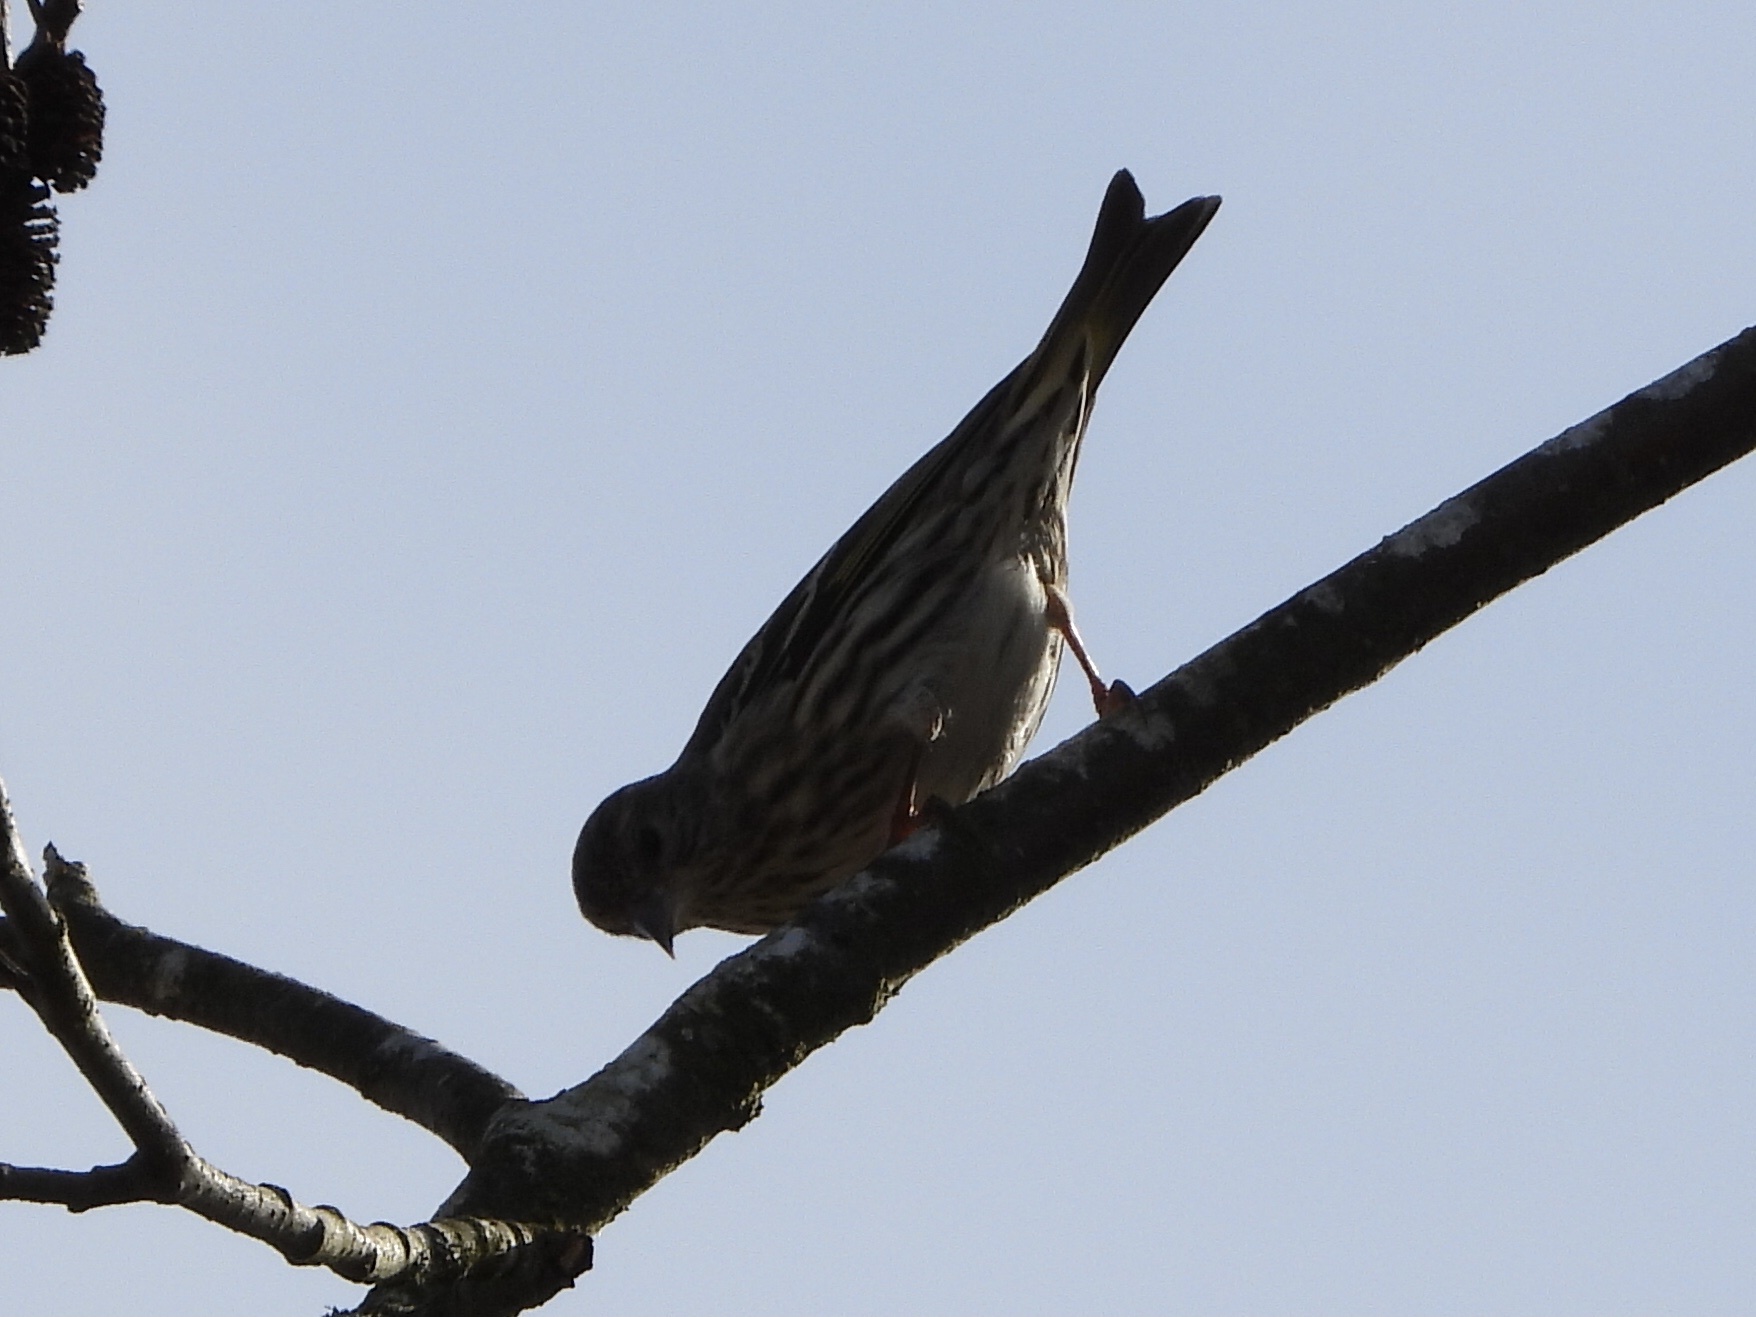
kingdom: Animalia
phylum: Chordata
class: Aves
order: Passeriformes
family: Fringillidae
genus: Spinus
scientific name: Spinus pinus
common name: Pine siskin
